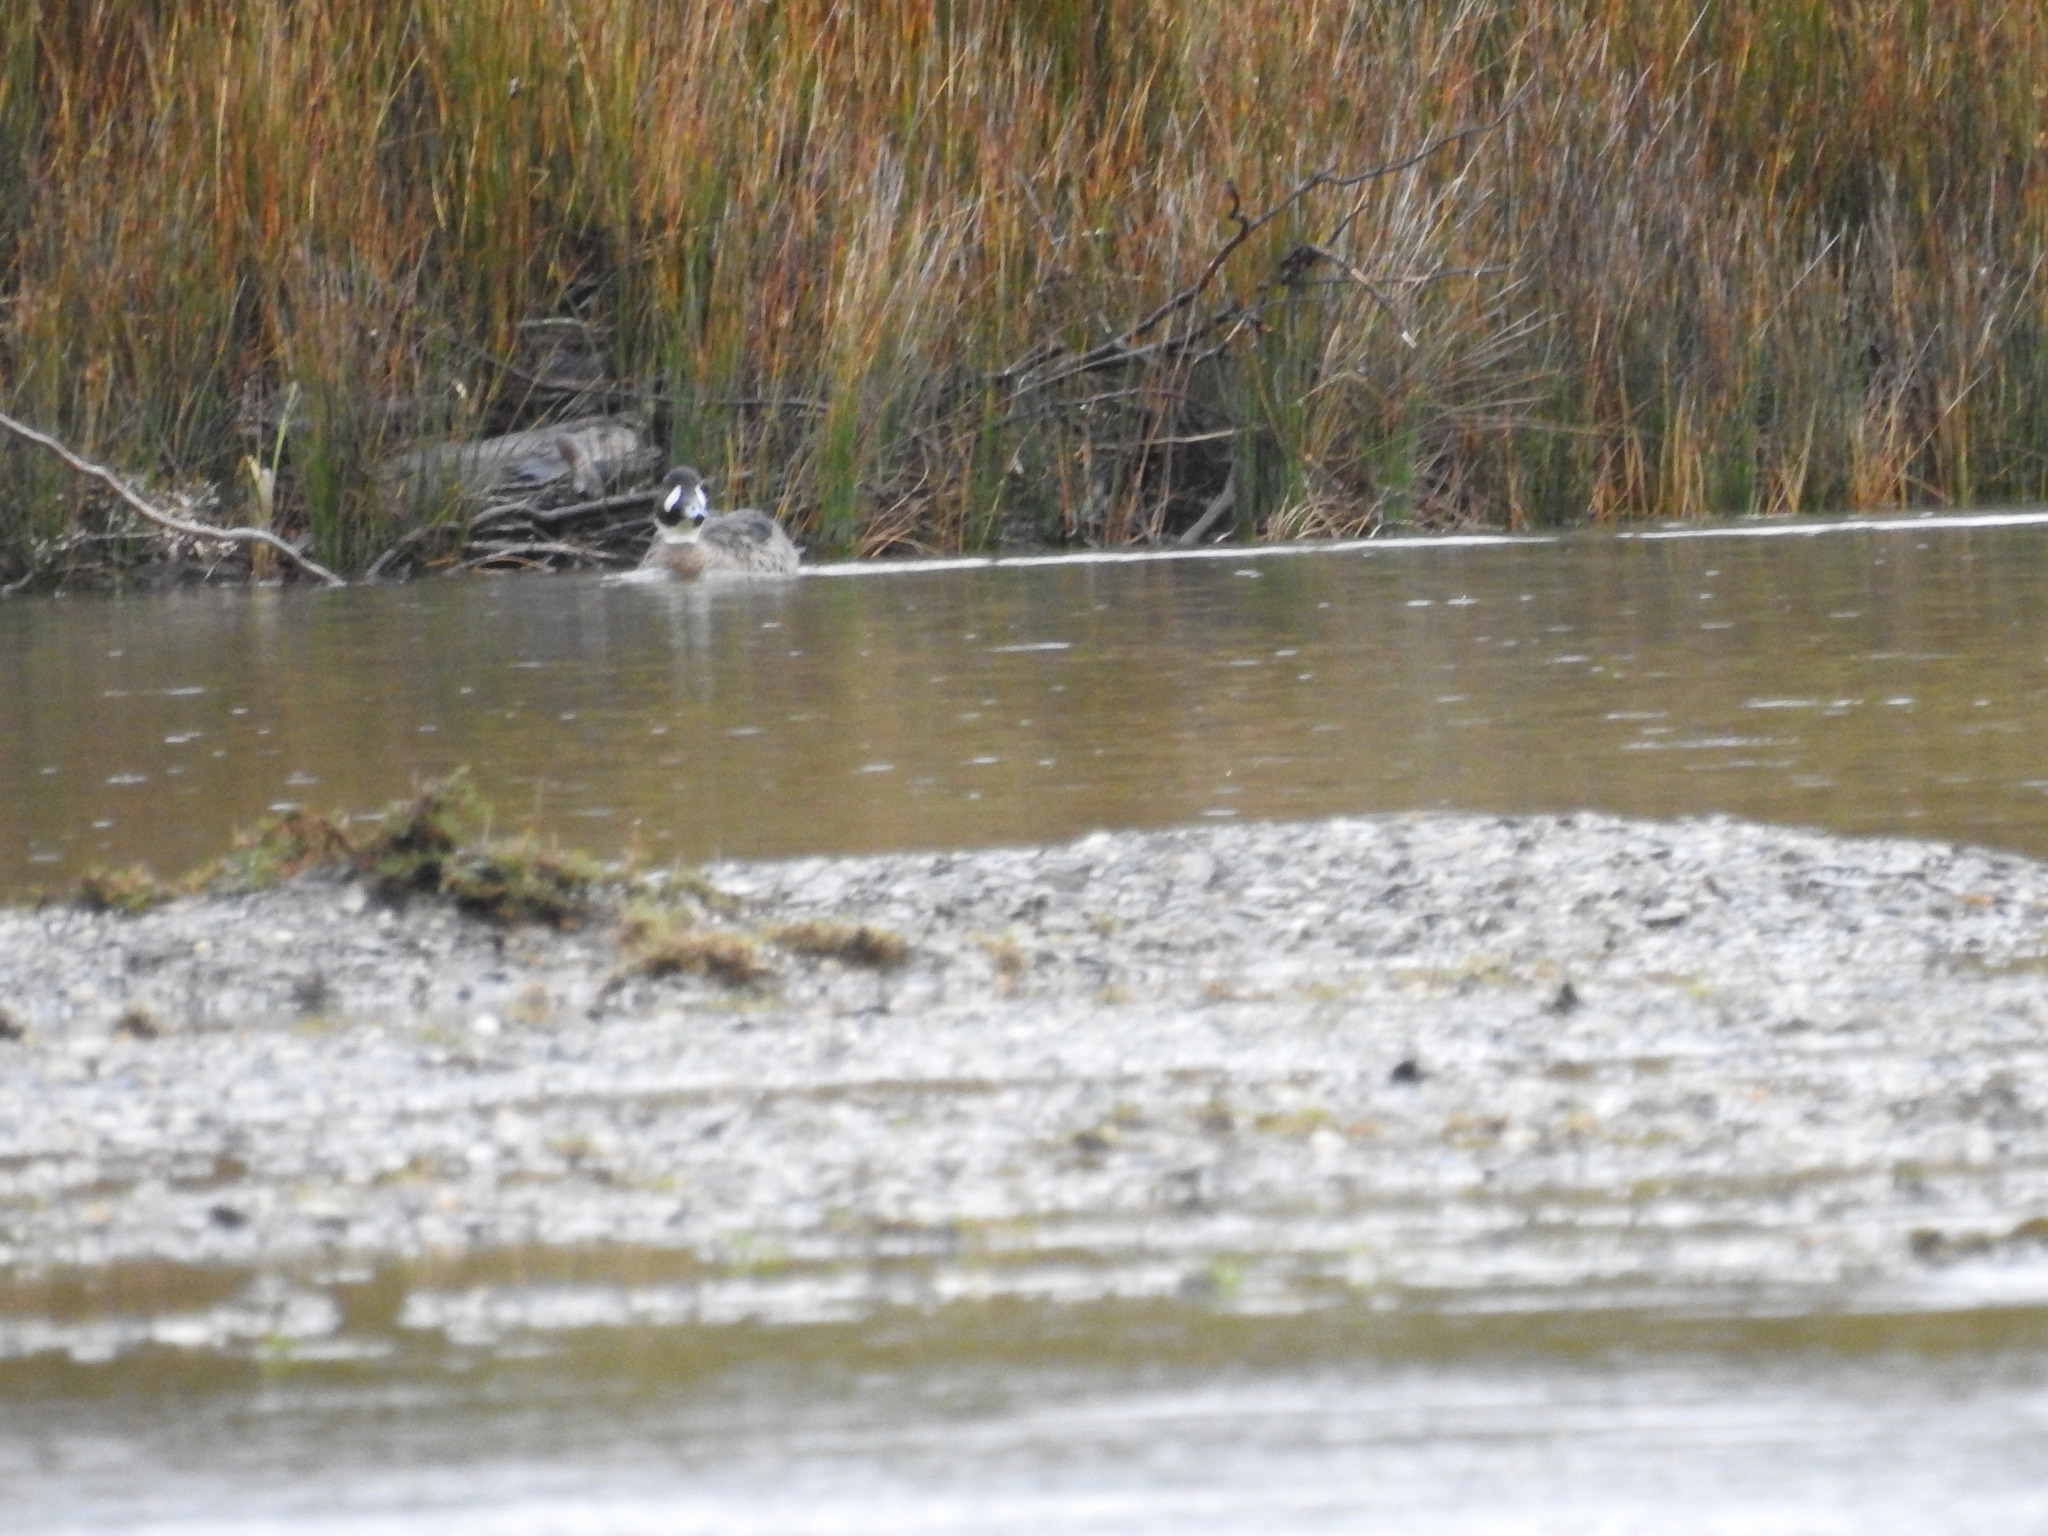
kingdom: Animalia
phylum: Chordata
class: Aves
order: Anseriformes
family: Anatidae
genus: Speculanas
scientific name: Speculanas specularis
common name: Bronze-winged duck
